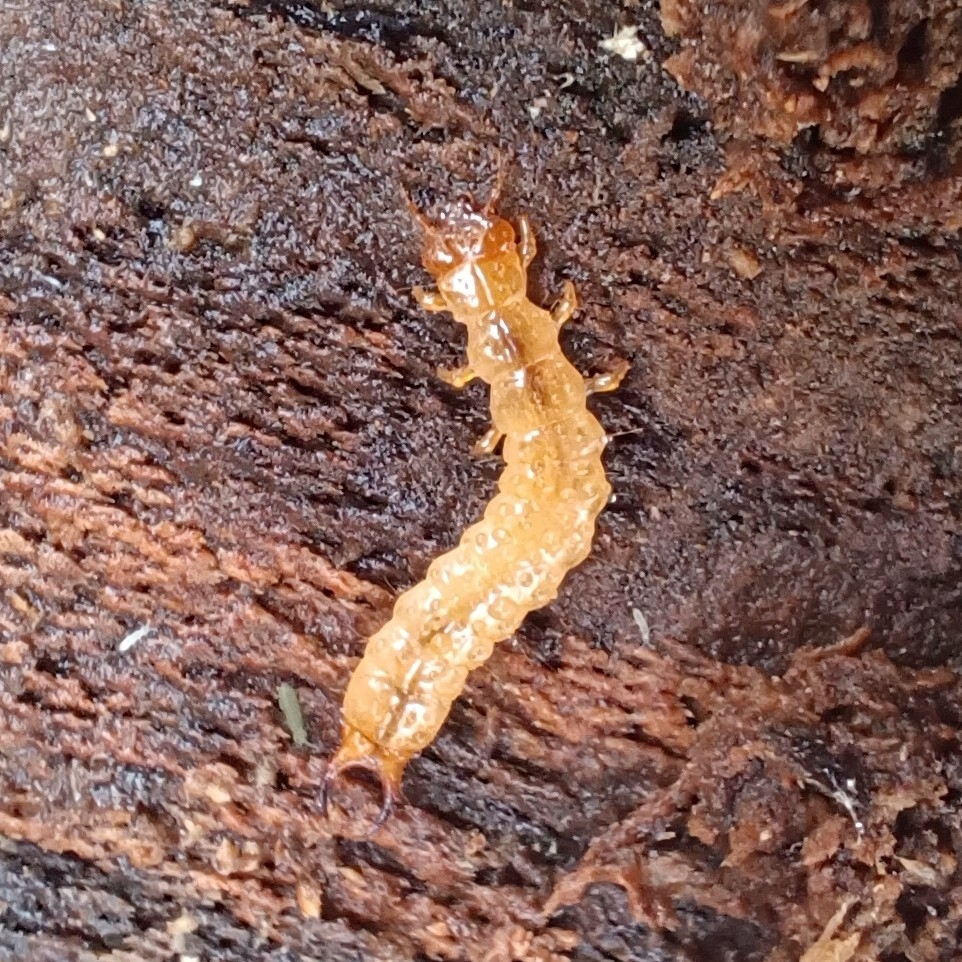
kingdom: Animalia
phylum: Arthropoda
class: Insecta
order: Coleoptera
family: Pyrochroidae
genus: Schizotus
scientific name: Schizotus pectinicornis
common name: Scarce cardinal beetle
